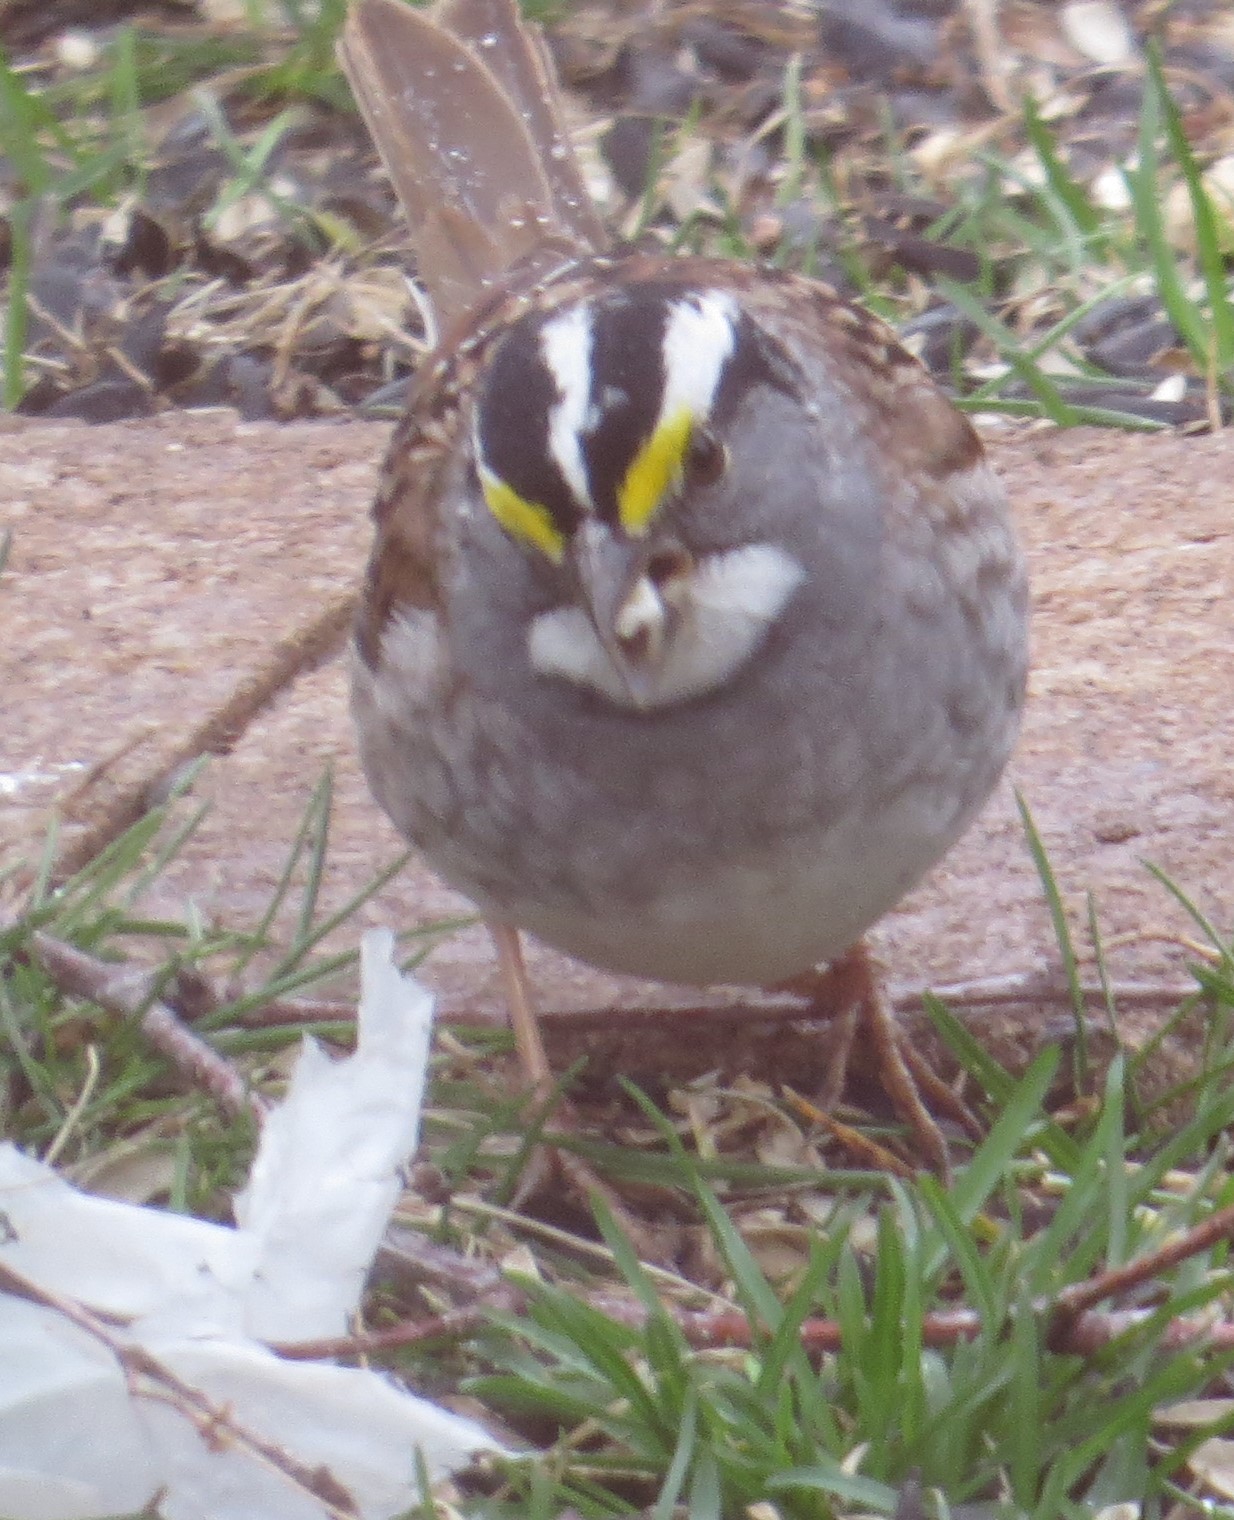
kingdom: Animalia
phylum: Chordata
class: Aves
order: Passeriformes
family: Passerellidae
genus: Zonotrichia
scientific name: Zonotrichia albicollis
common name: White-throated sparrow
